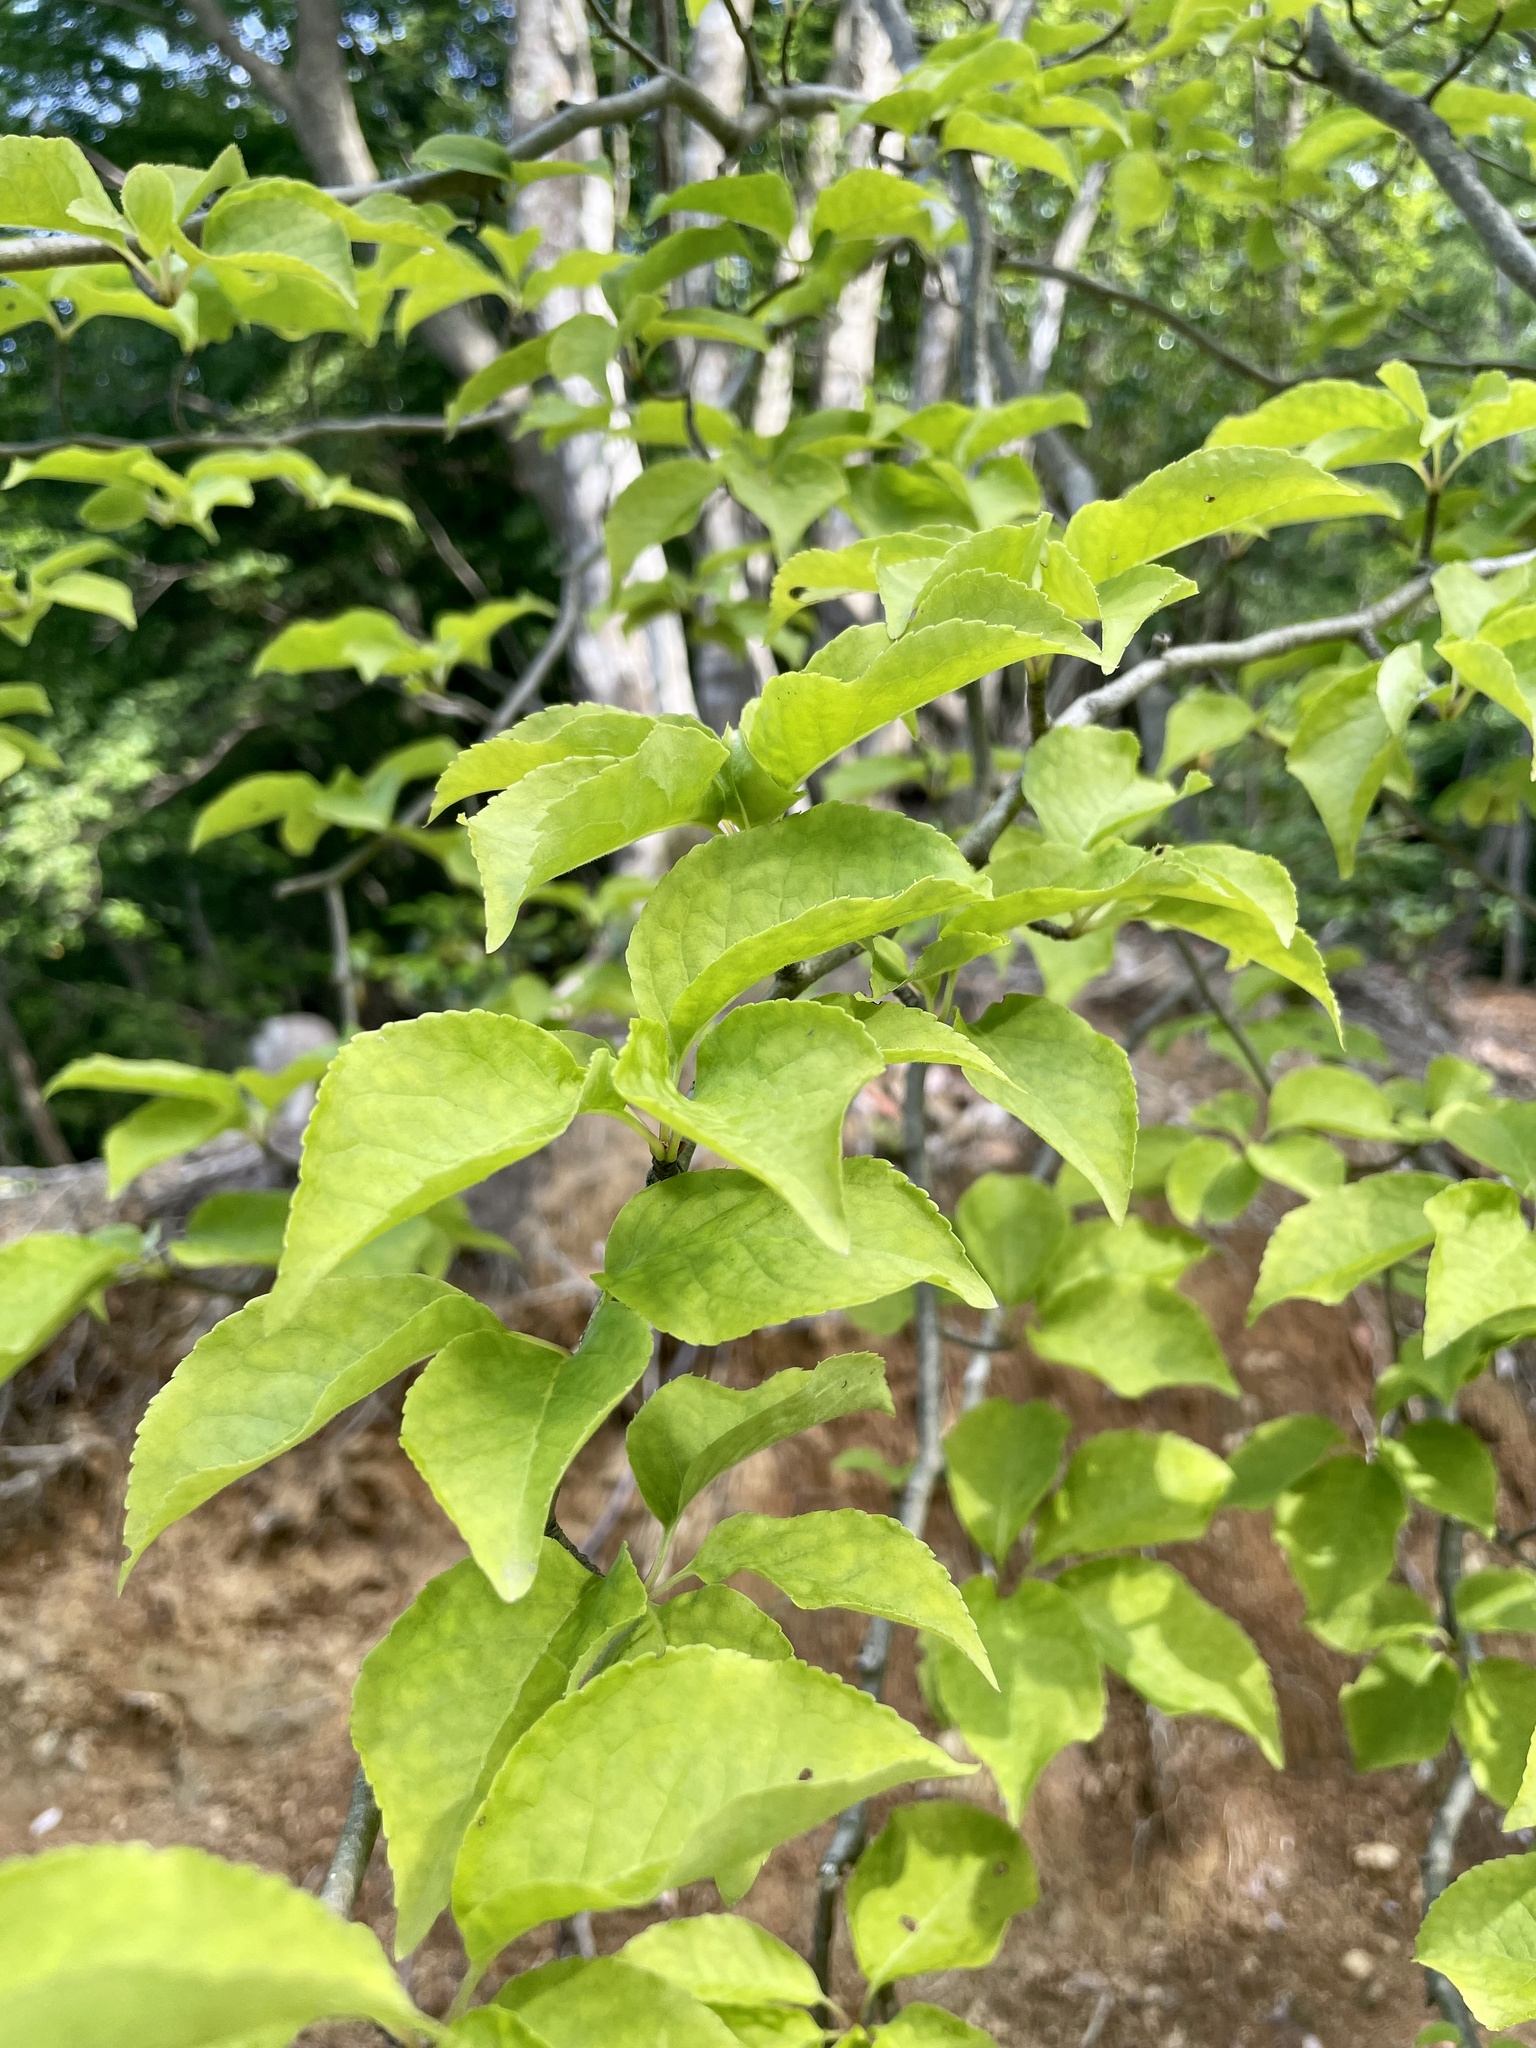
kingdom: Plantae
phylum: Tracheophyta
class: Magnoliopsida
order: Aquifoliales
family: Aquifoliaceae
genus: Ilex
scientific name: Ilex macropoda
